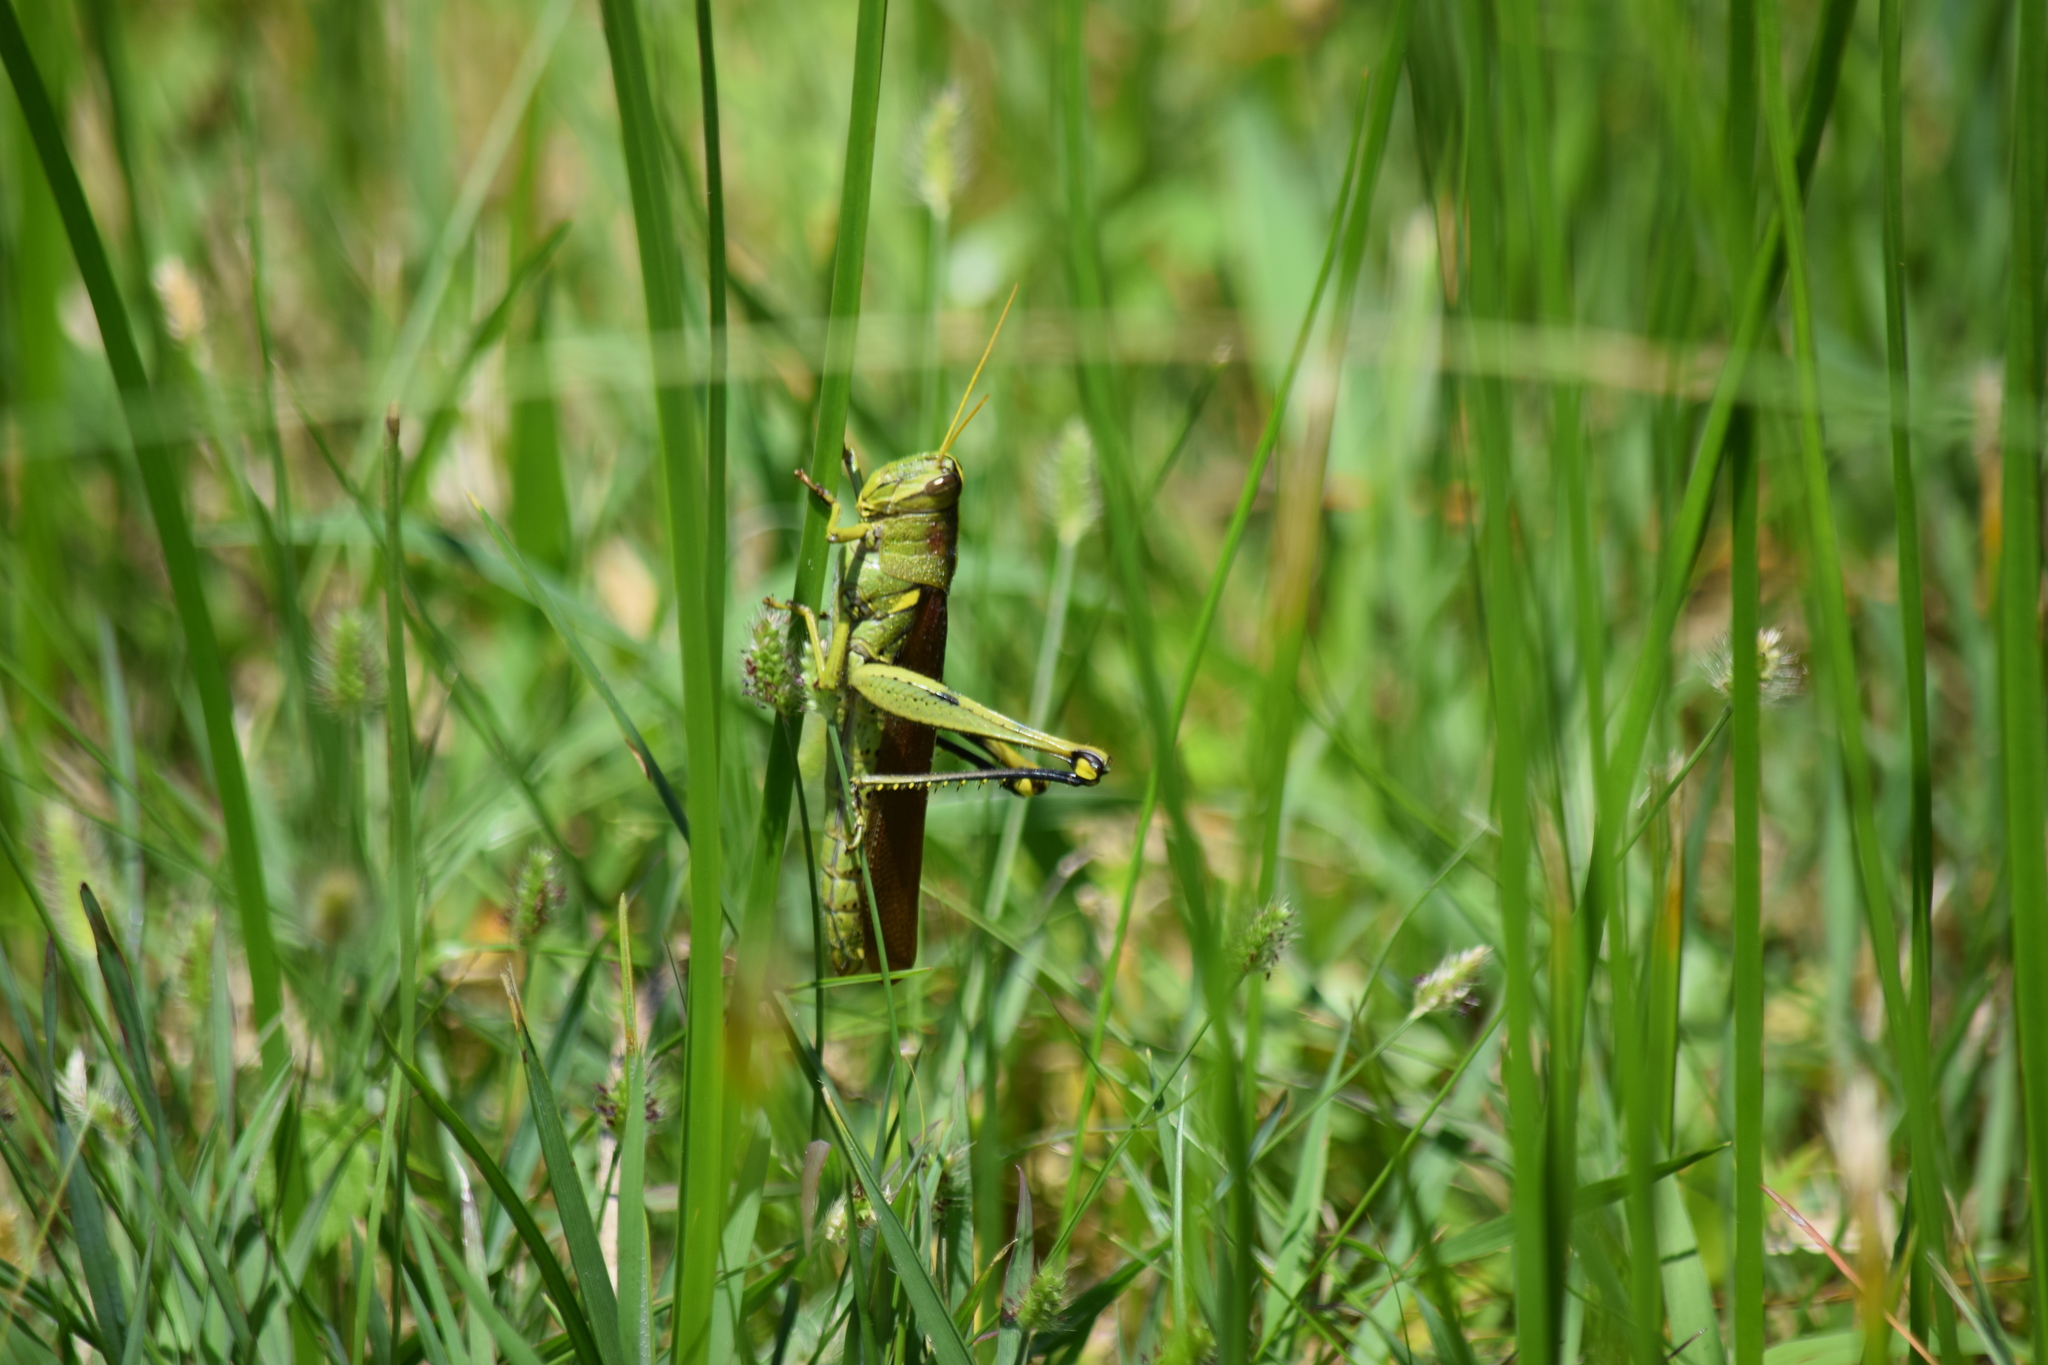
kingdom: Animalia
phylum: Arthropoda
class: Insecta
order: Orthoptera
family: Acrididae
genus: Schistocerca
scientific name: Schistocerca obscura
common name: Obscure bird grasshopper
